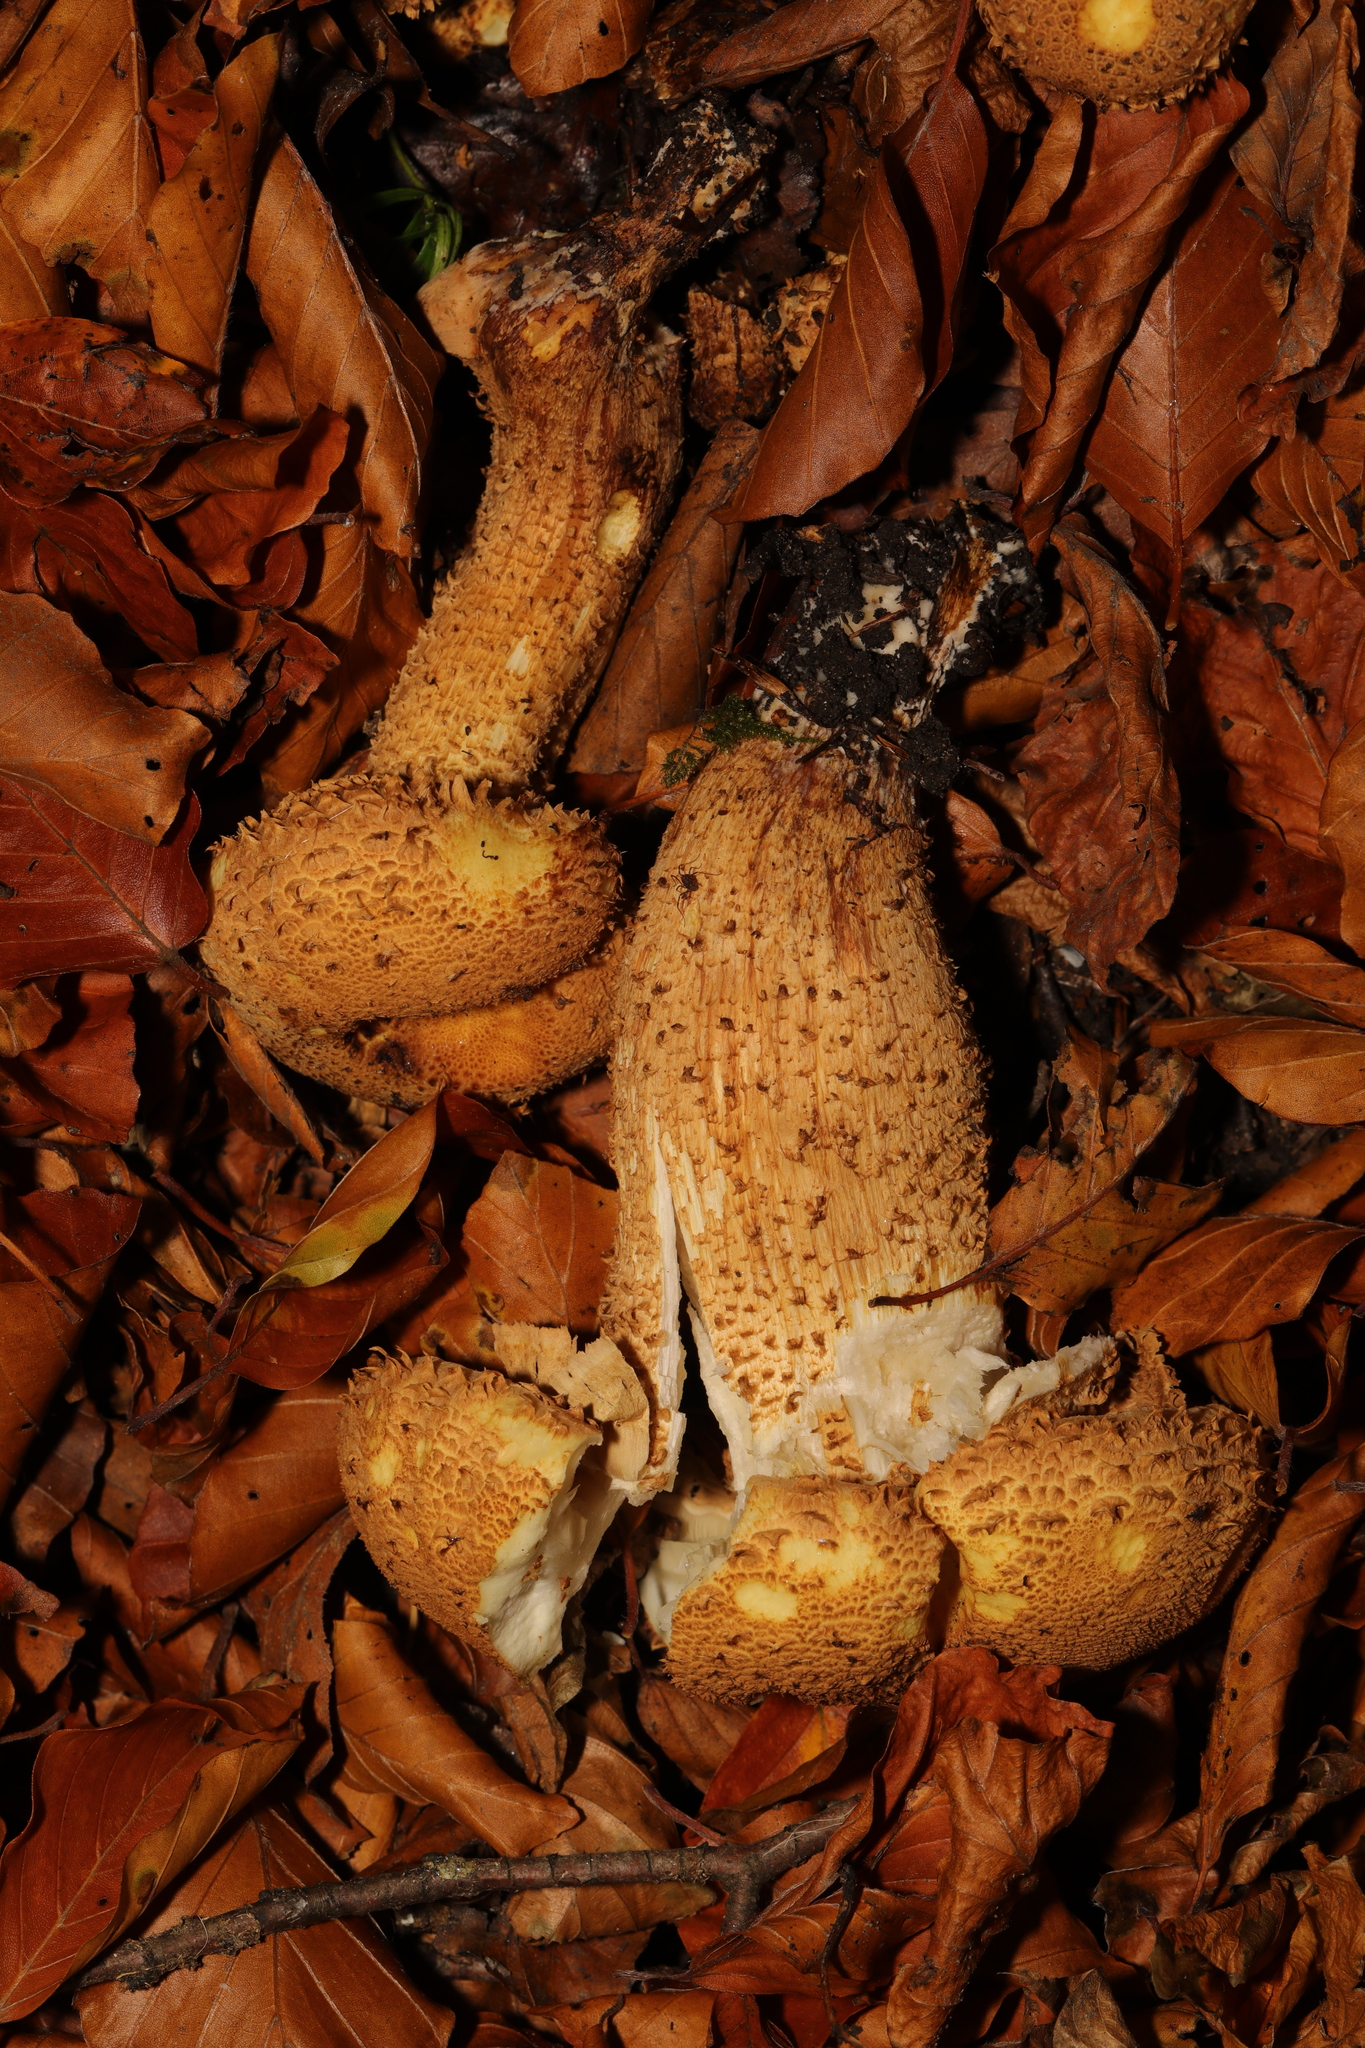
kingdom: Fungi
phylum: Basidiomycota
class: Agaricomycetes
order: Agaricales
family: Strophariaceae
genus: Pholiota
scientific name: Pholiota squarrosa
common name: Shaggy pholiota
